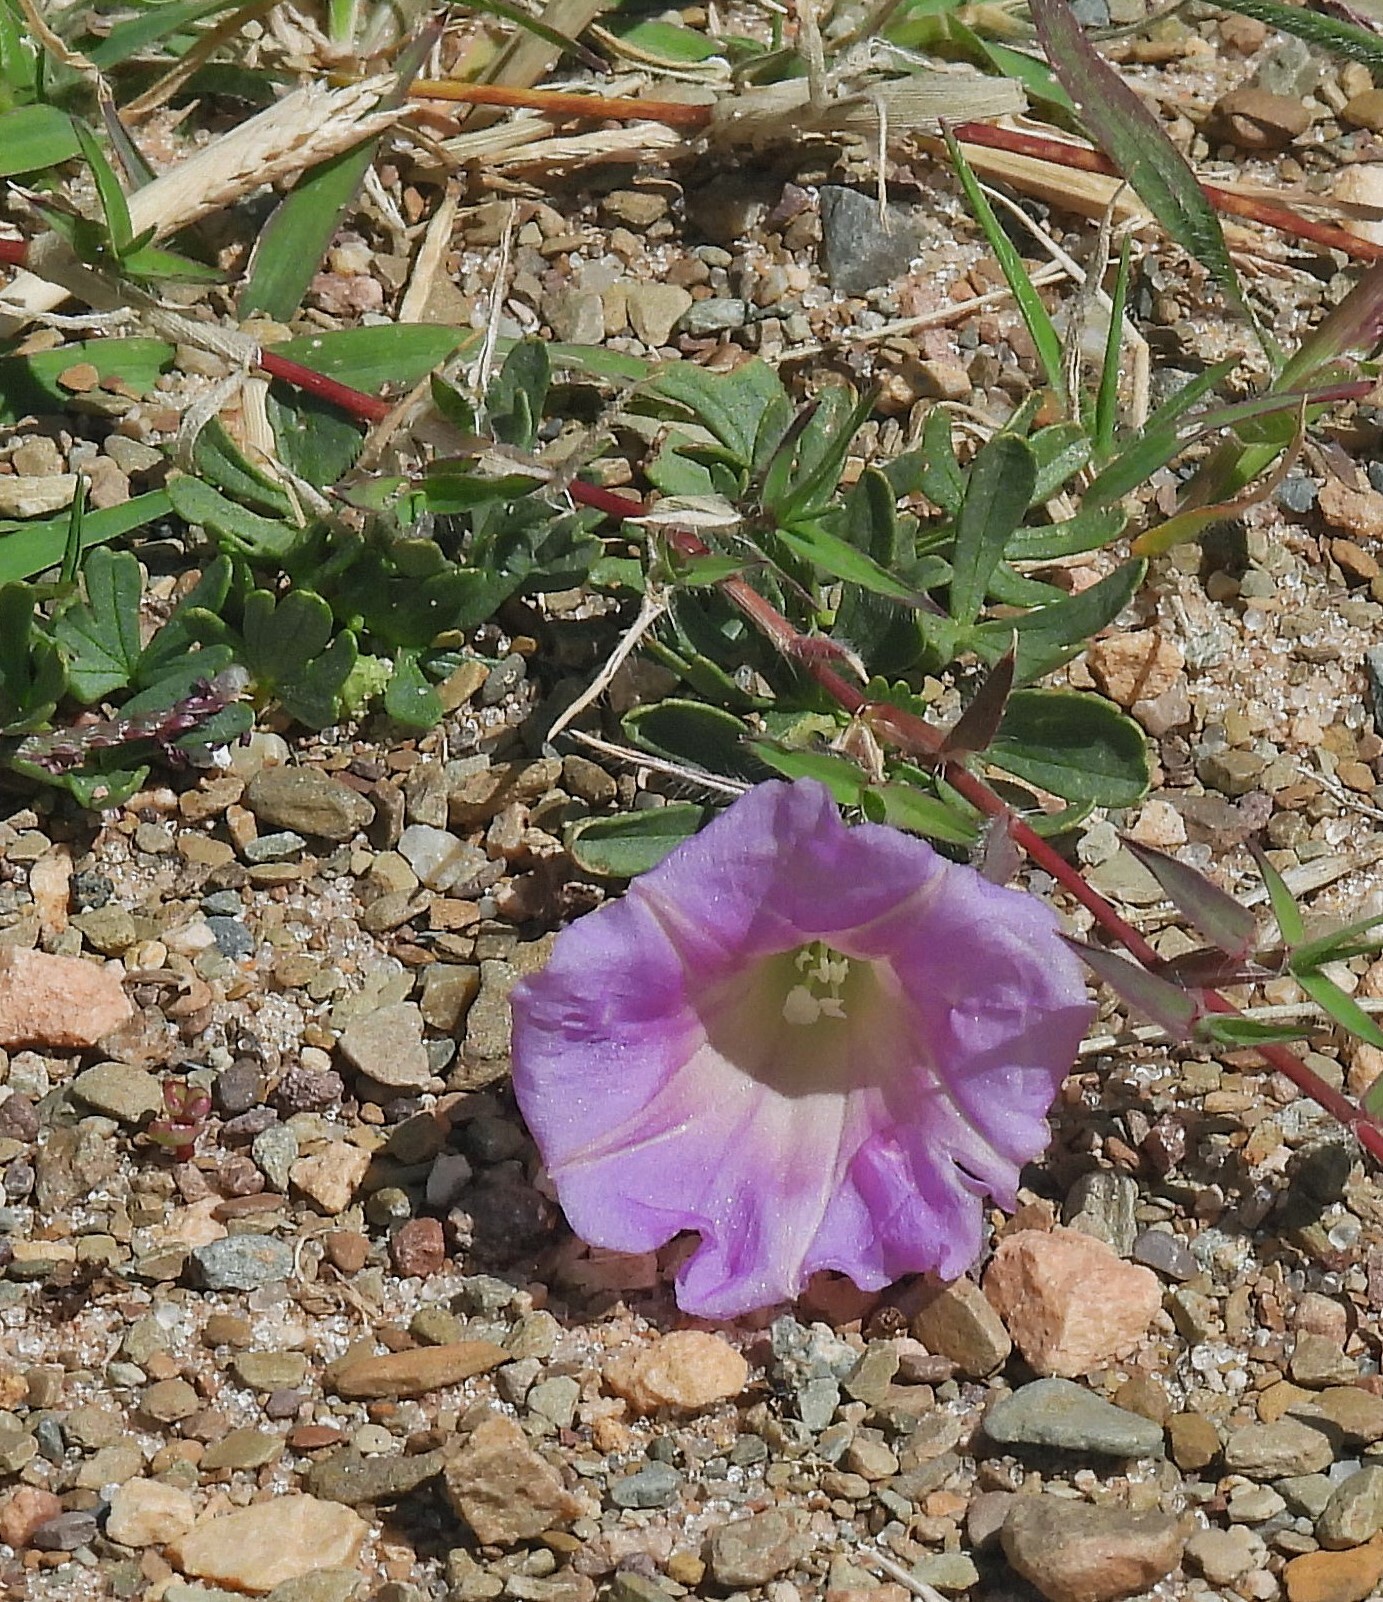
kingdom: Plantae
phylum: Tracheophyta
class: Magnoliopsida
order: Solanales
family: Convolvulaceae
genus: Ipomoea
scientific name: Ipomoea plummerae
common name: Plummer's morning-glory
